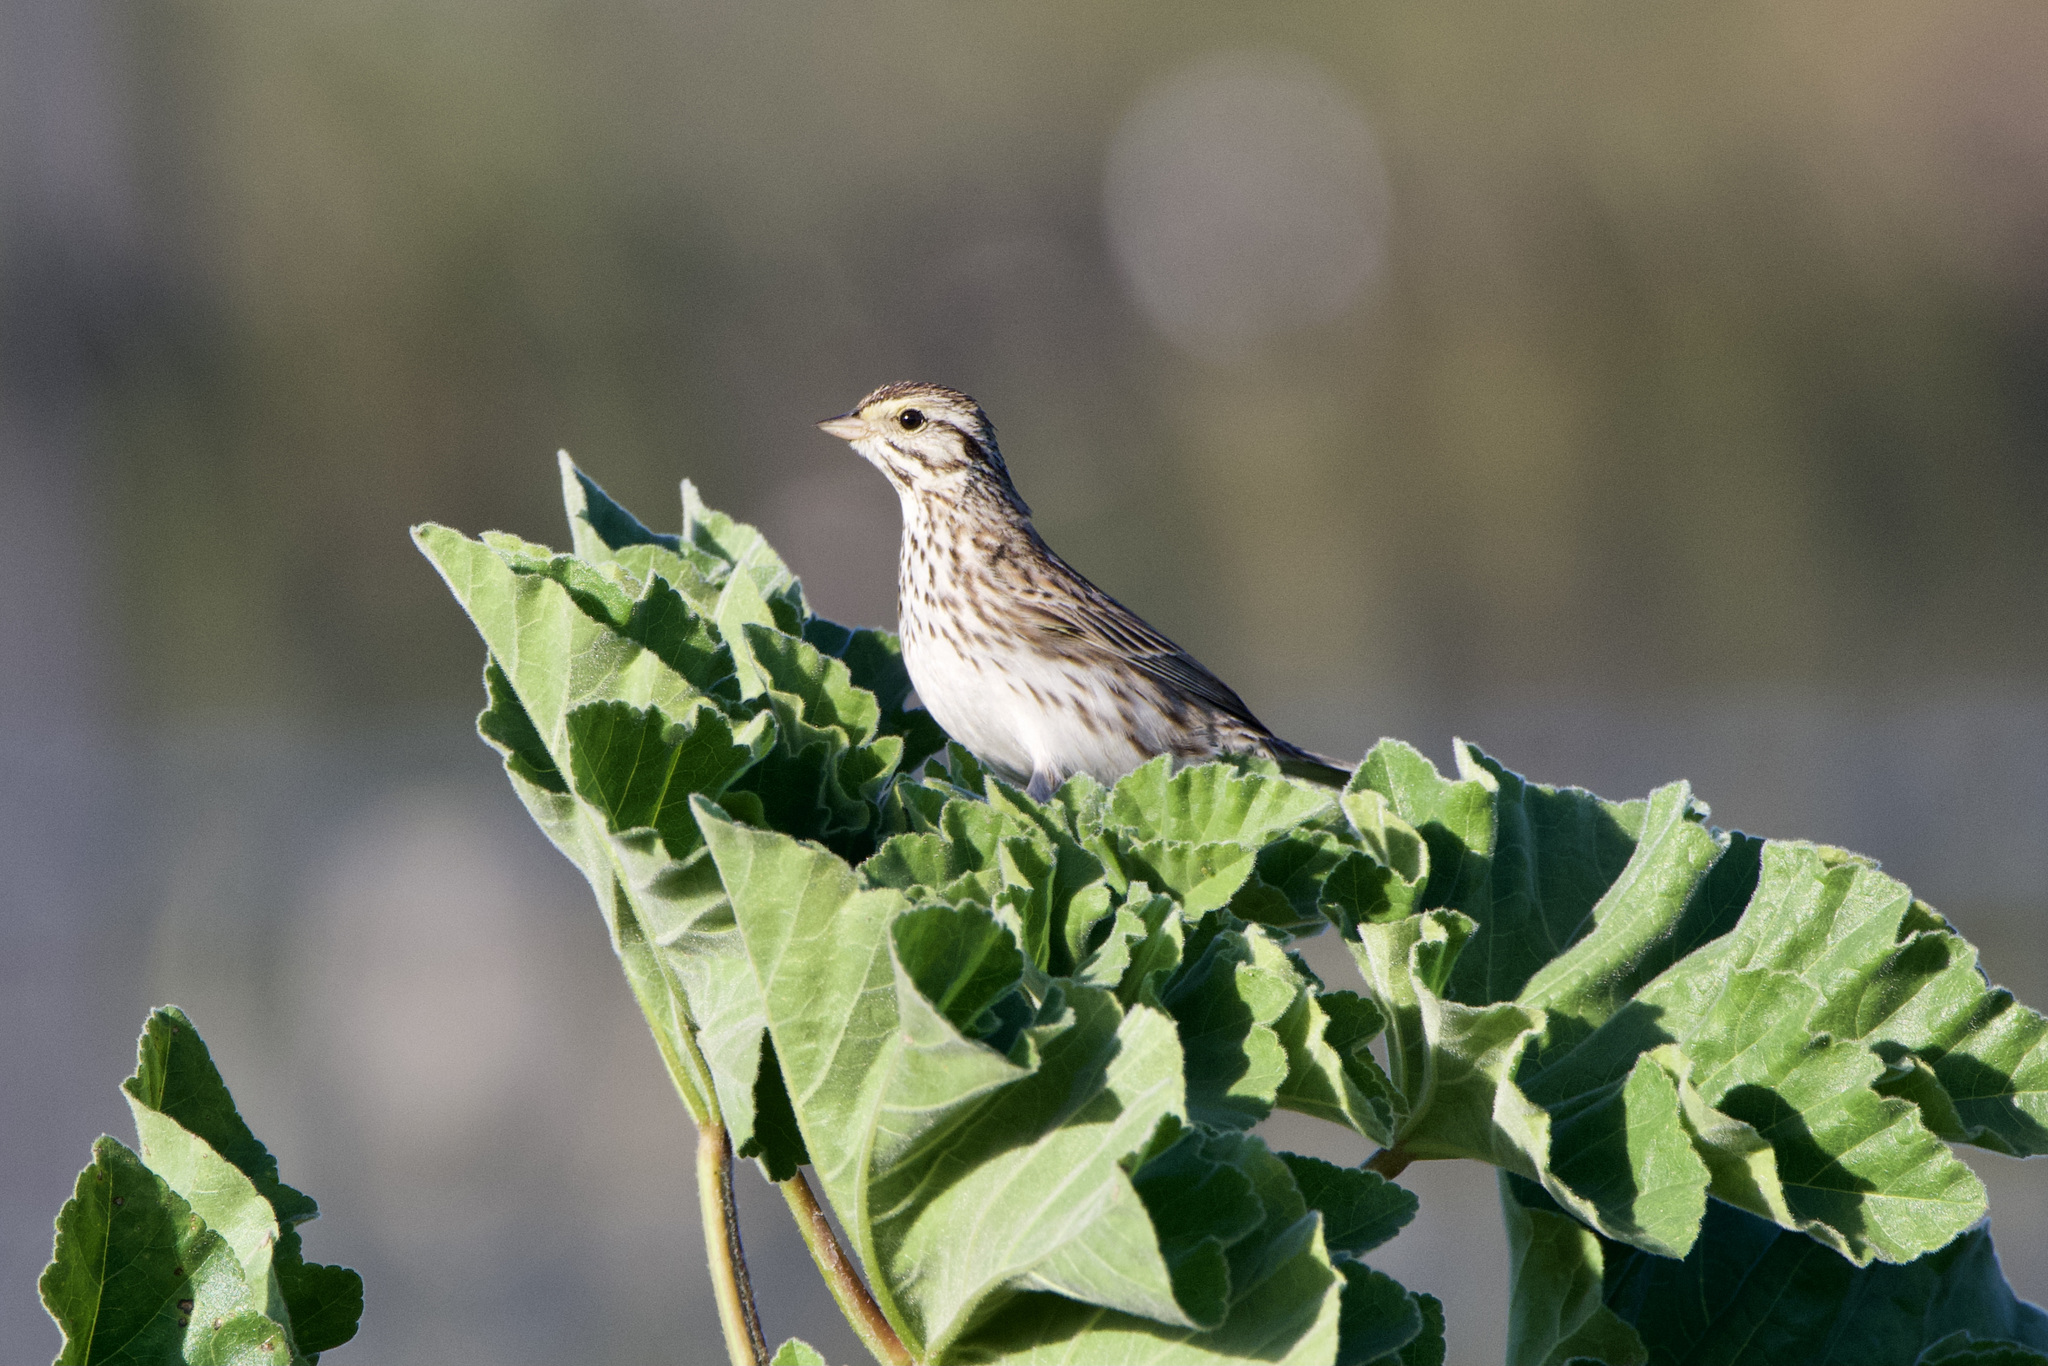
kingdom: Animalia
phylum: Chordata
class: Aves
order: Passeriformes
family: Passerellidae
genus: Passerculus
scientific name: Passerculus sandwichensis
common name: Savannah sparrow
